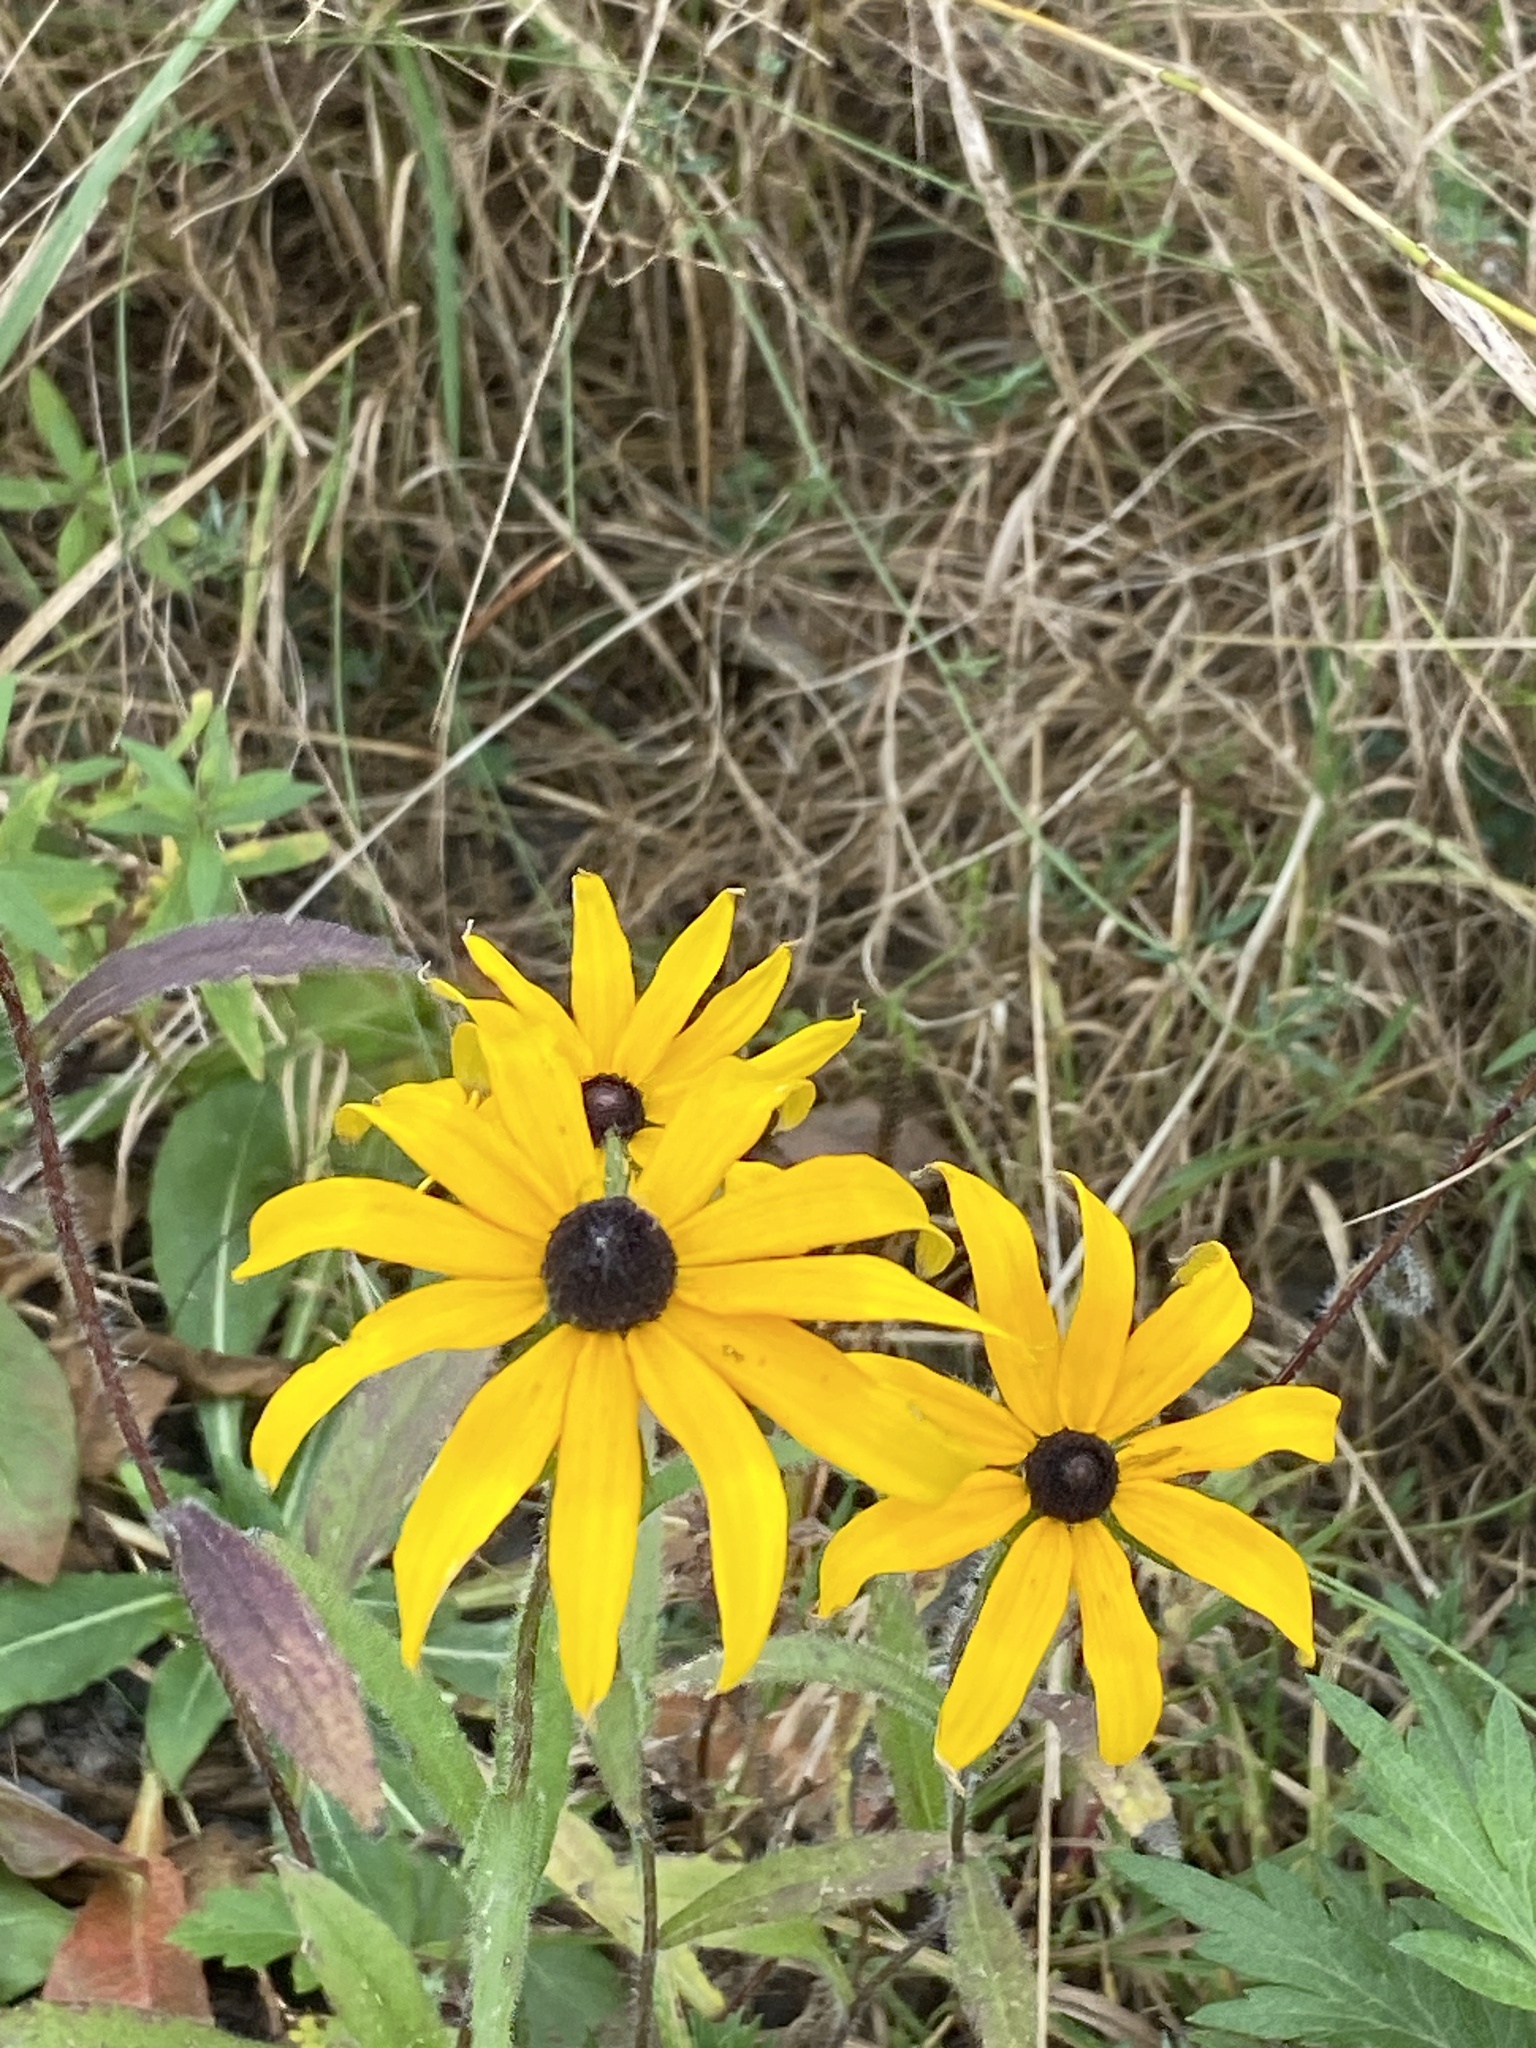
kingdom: Plantae
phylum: Tracheophyta
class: Magnoliopsida
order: Asterales
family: Asteraceae
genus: Rudbeckia
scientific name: Rudbeckia hirta
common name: Black-eyed-susan
